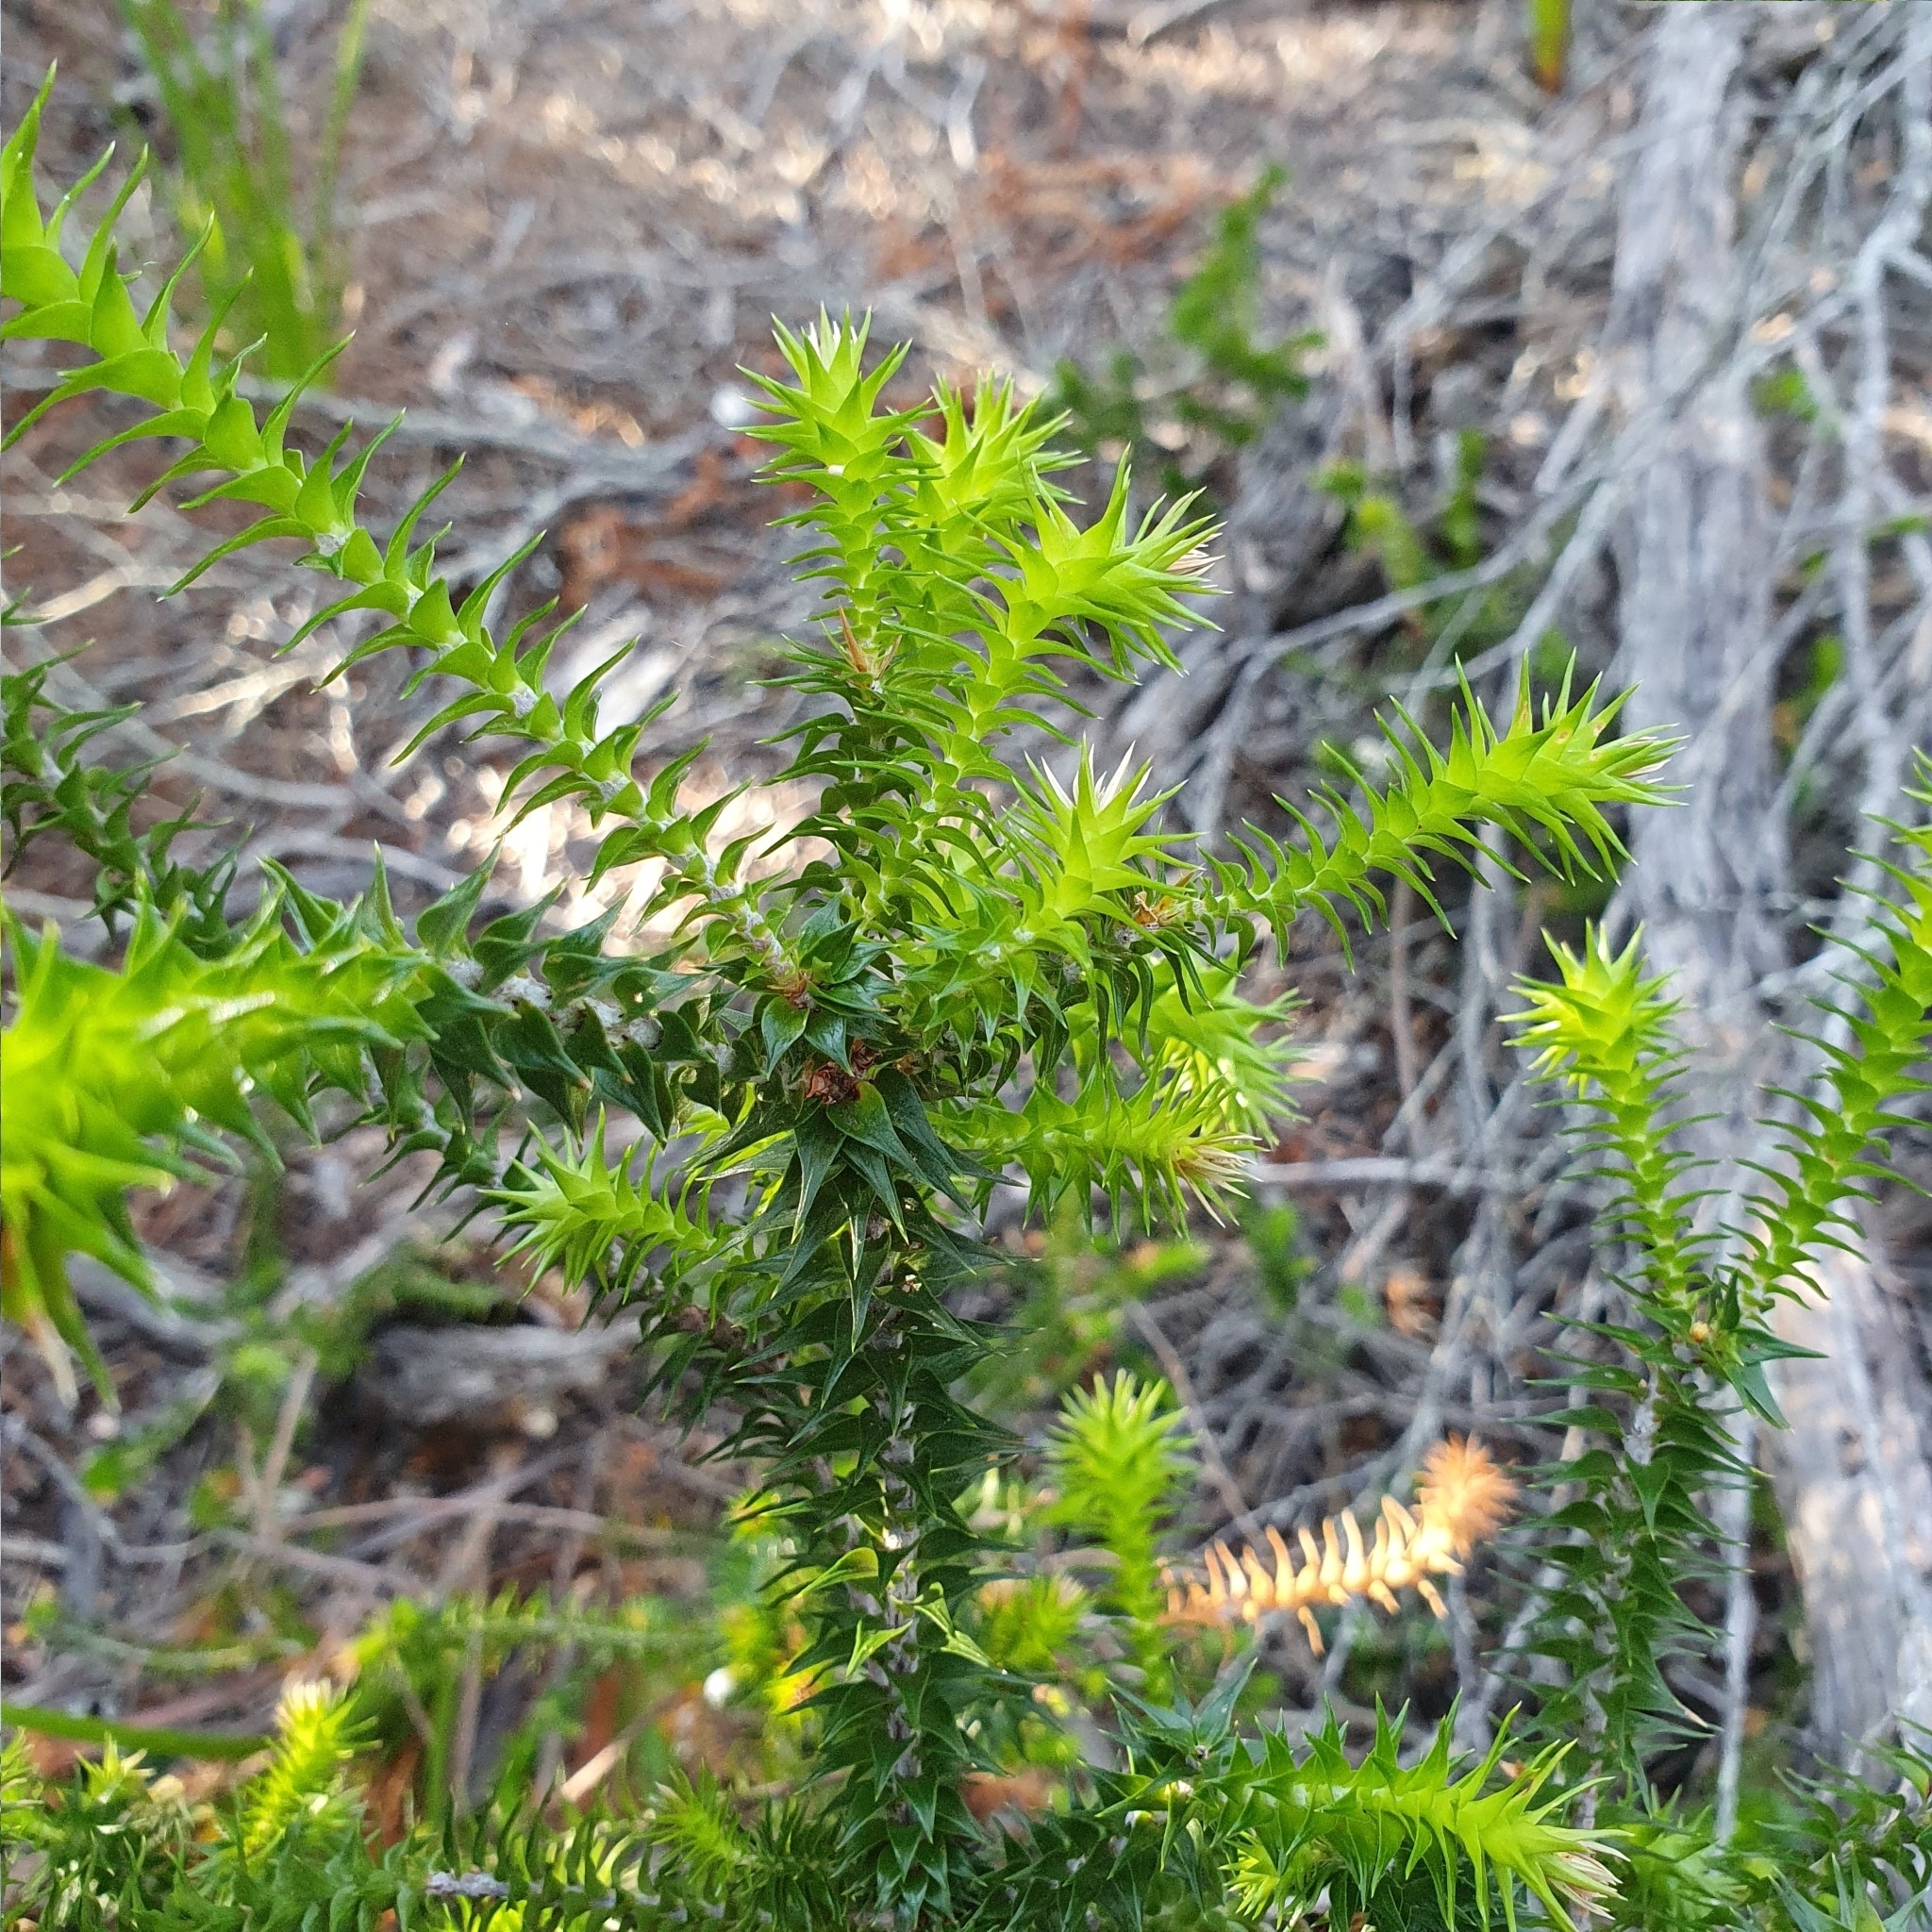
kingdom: Plantae
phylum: Tracheophyta
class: Magnoliopsida
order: Ericales
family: Ericaceae
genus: Woollsia
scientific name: Woollsia pungens
